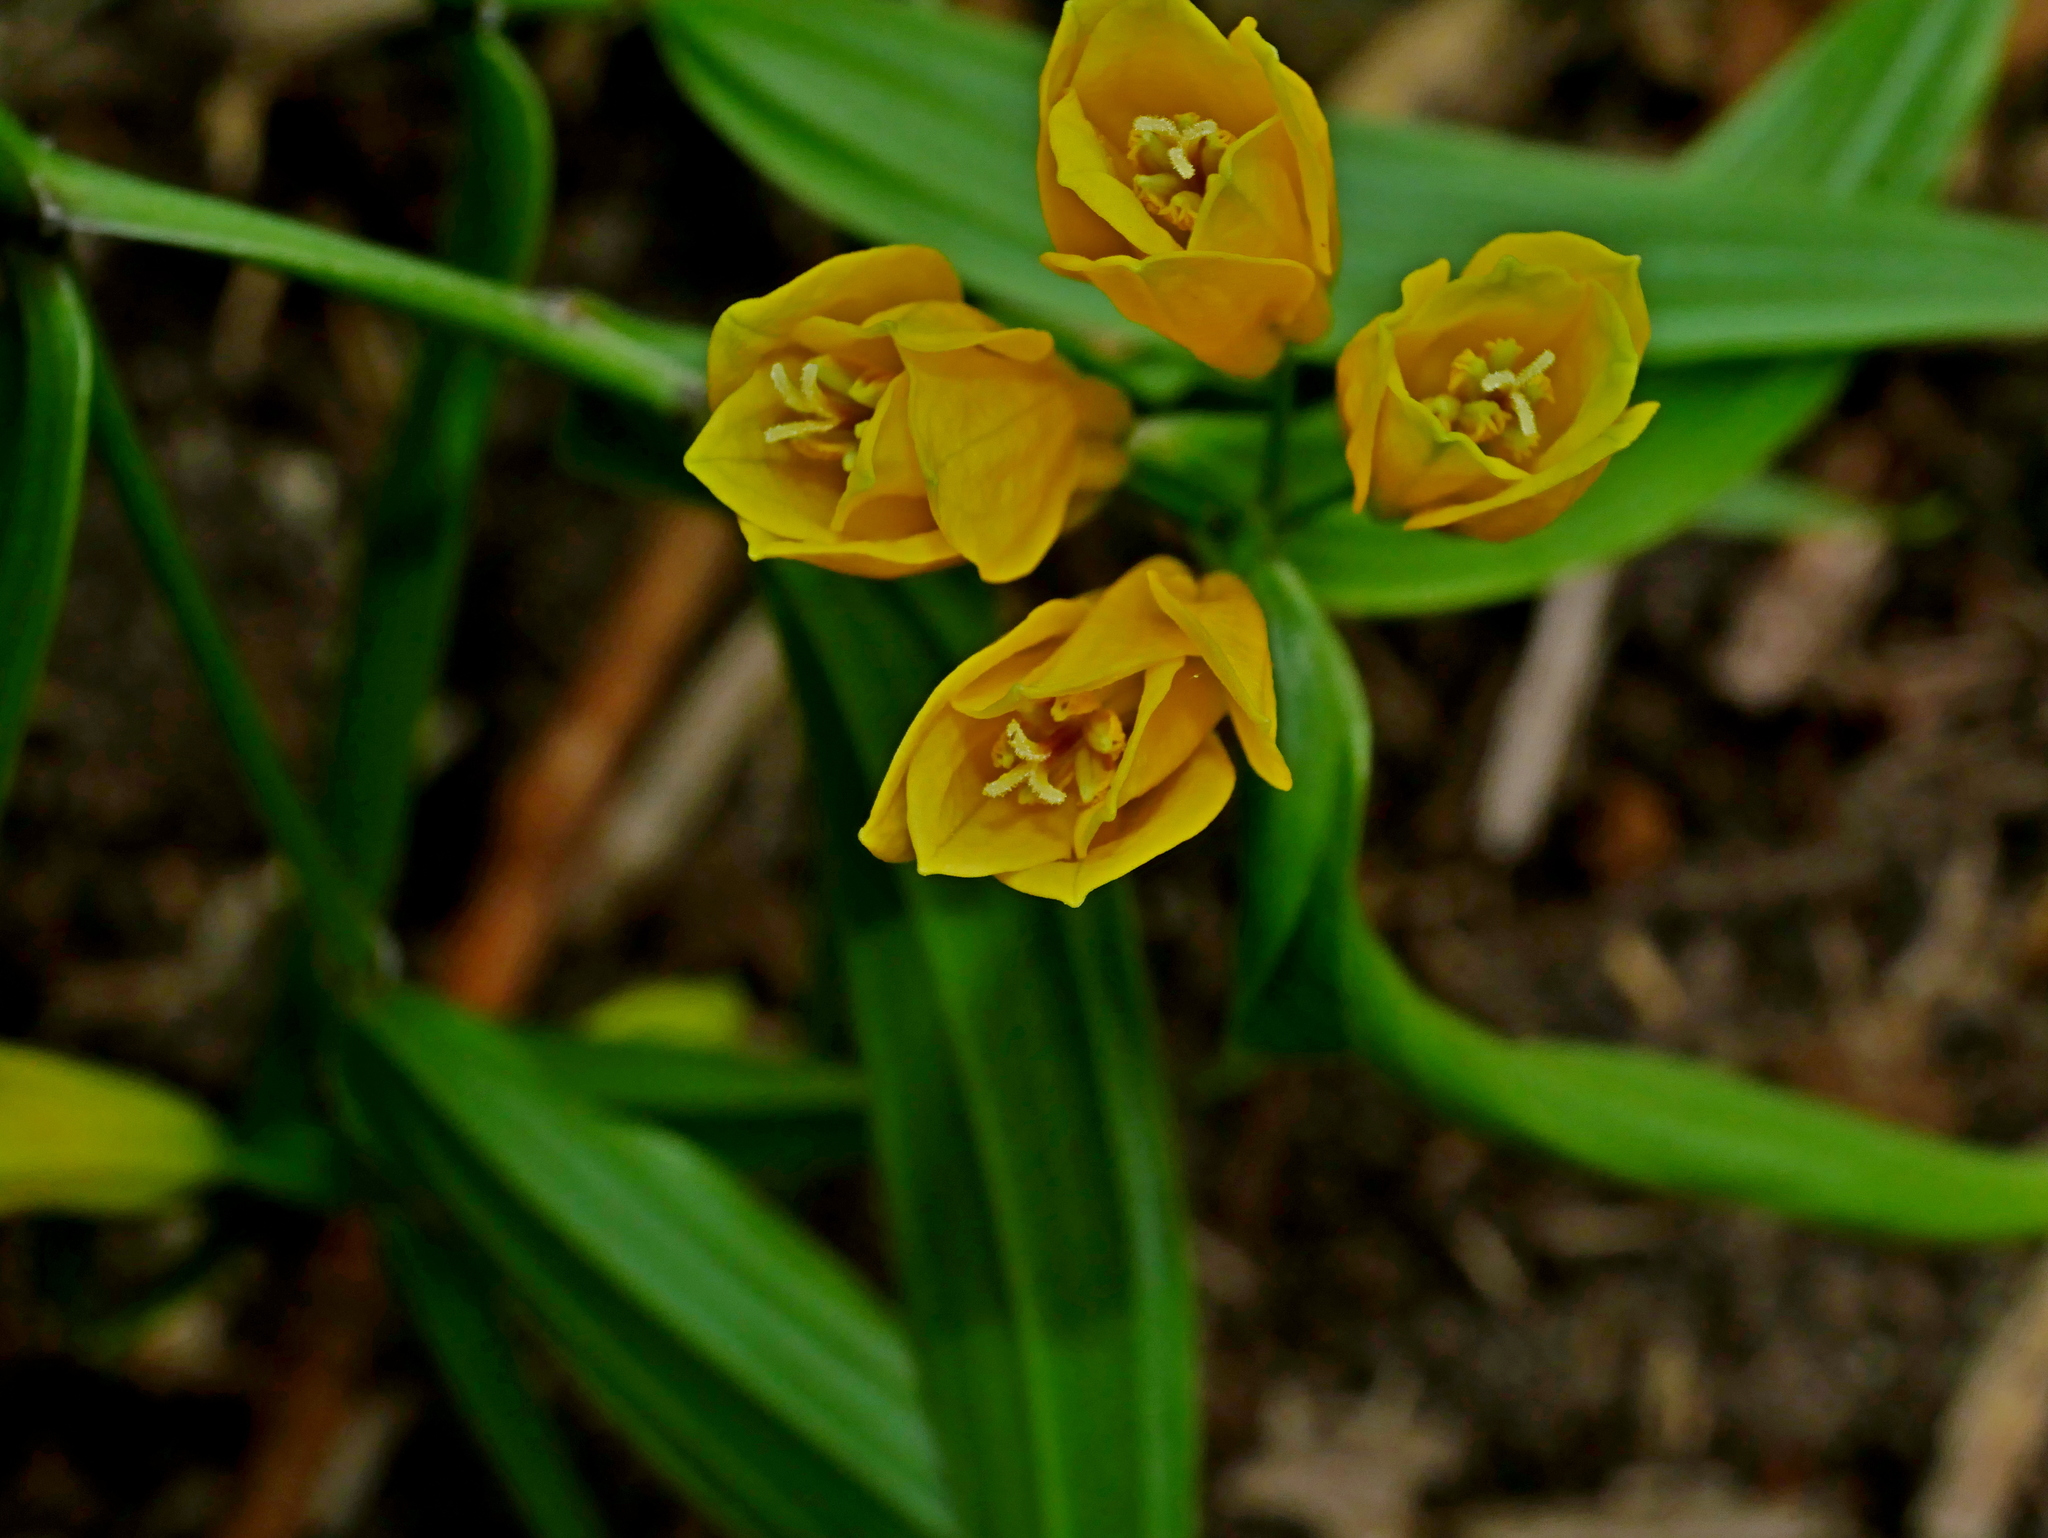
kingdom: Plantae
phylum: Tracheophyta
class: Liliopsida
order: Liliales
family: Colchicaceae
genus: Disporum
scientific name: Disporum shimadae
